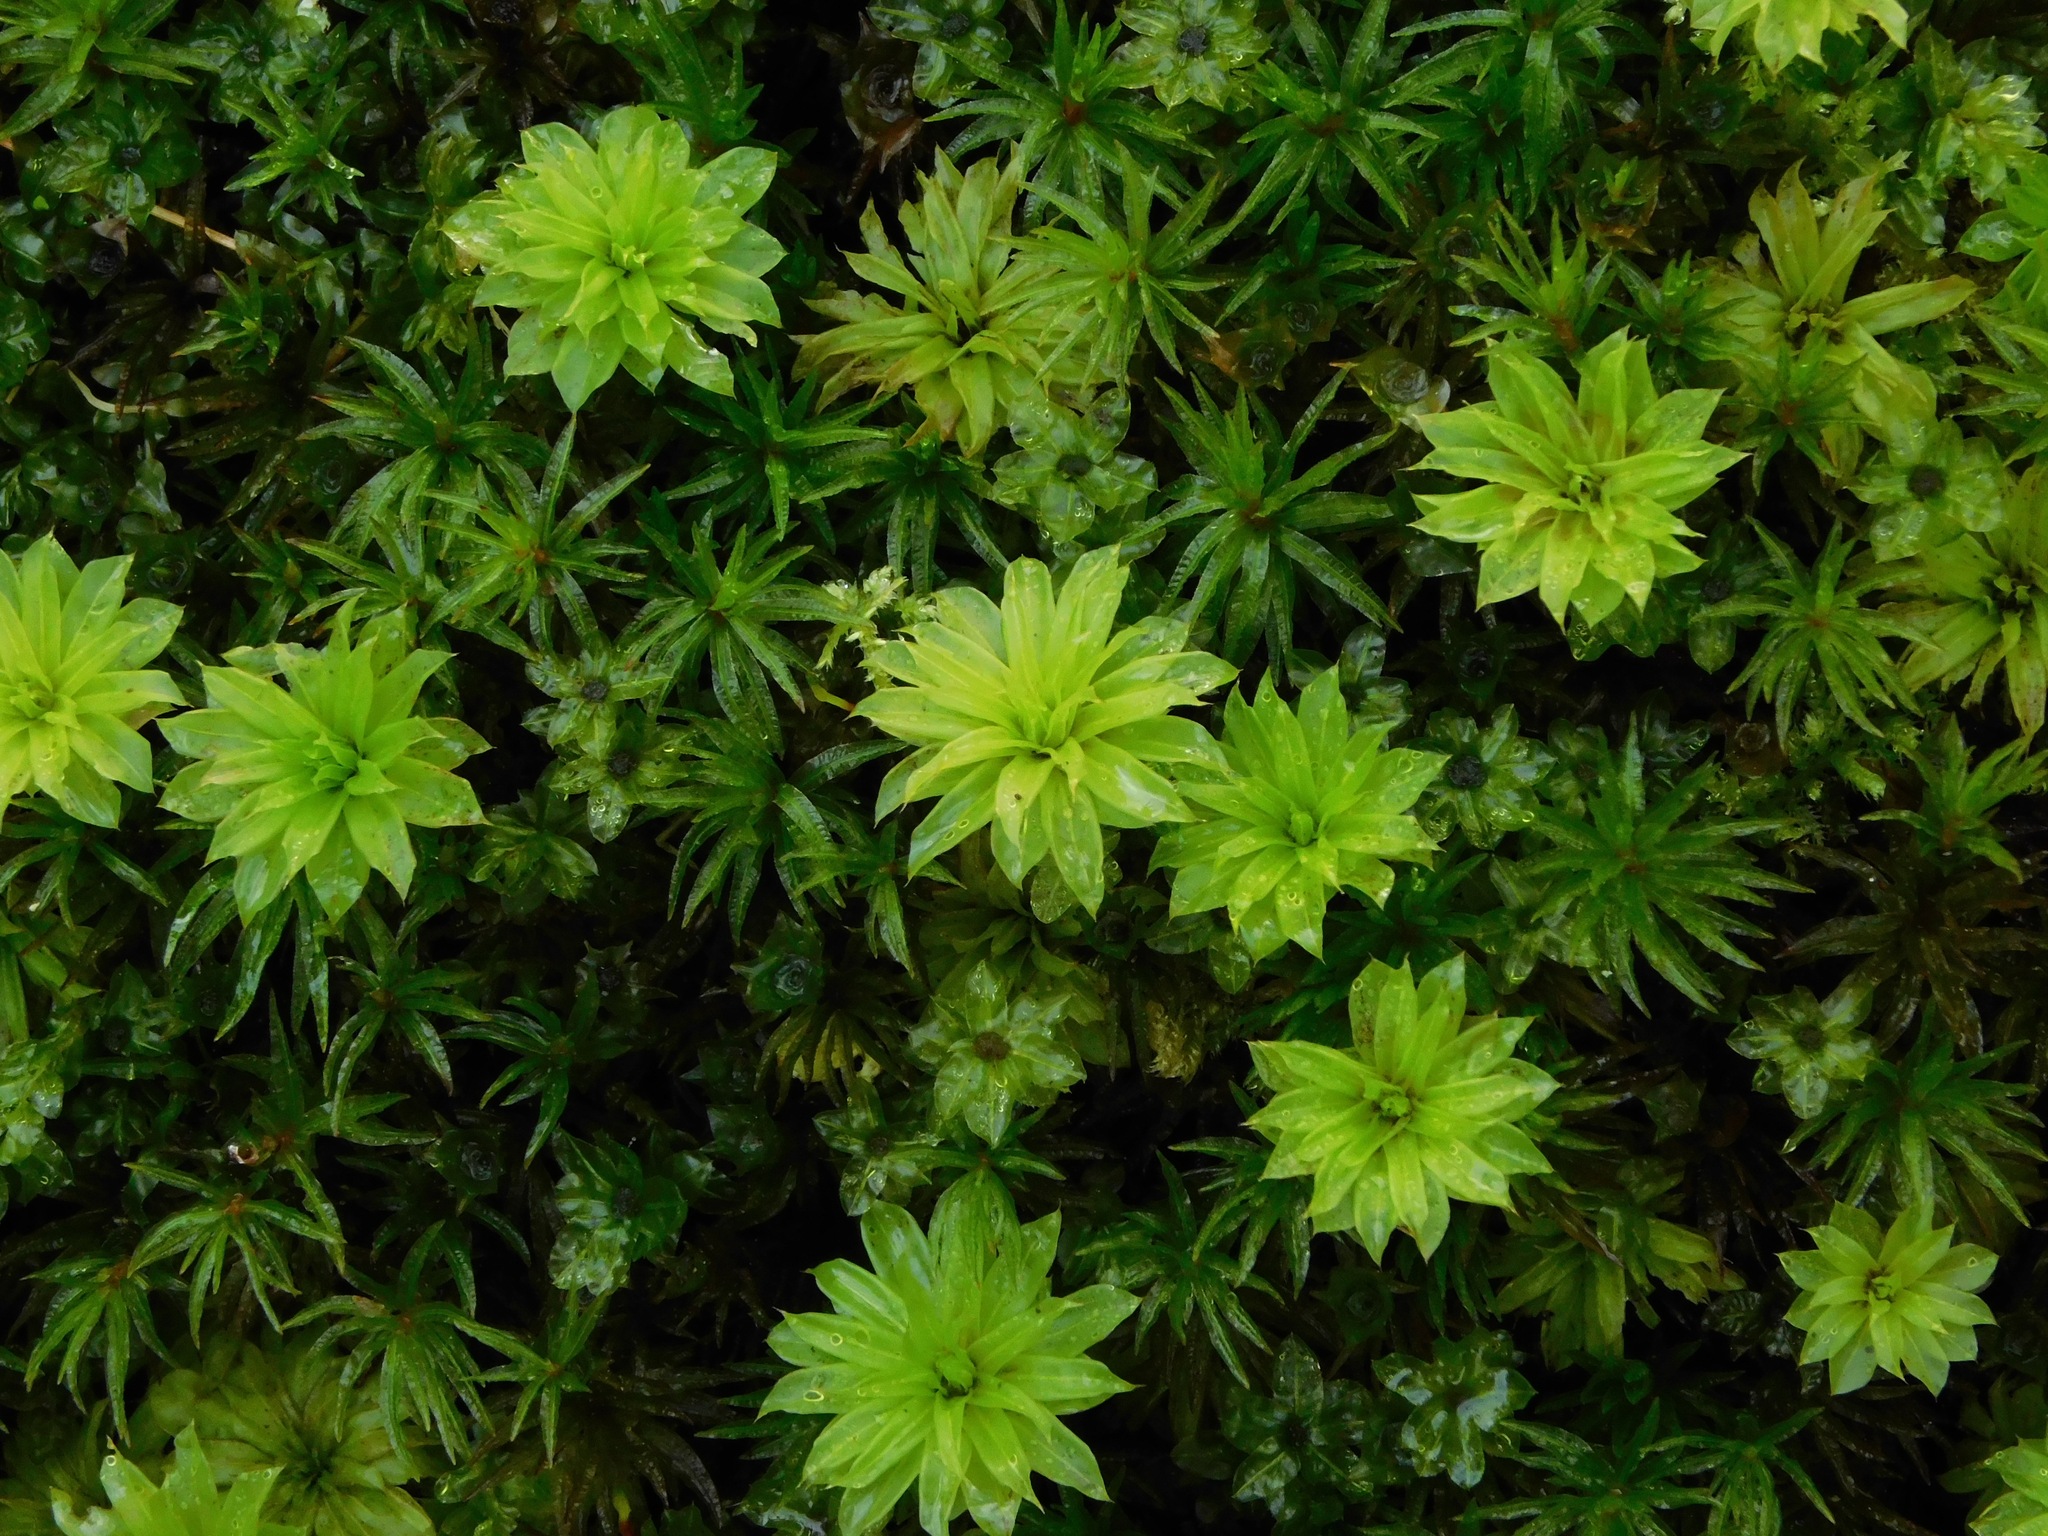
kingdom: Plantae
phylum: Bryophyta
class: Bryopsida
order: Bryales
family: Bryaceae
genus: Rhodobryum
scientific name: Rhodobryum ontariense
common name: Ontario rhodobryum moss
